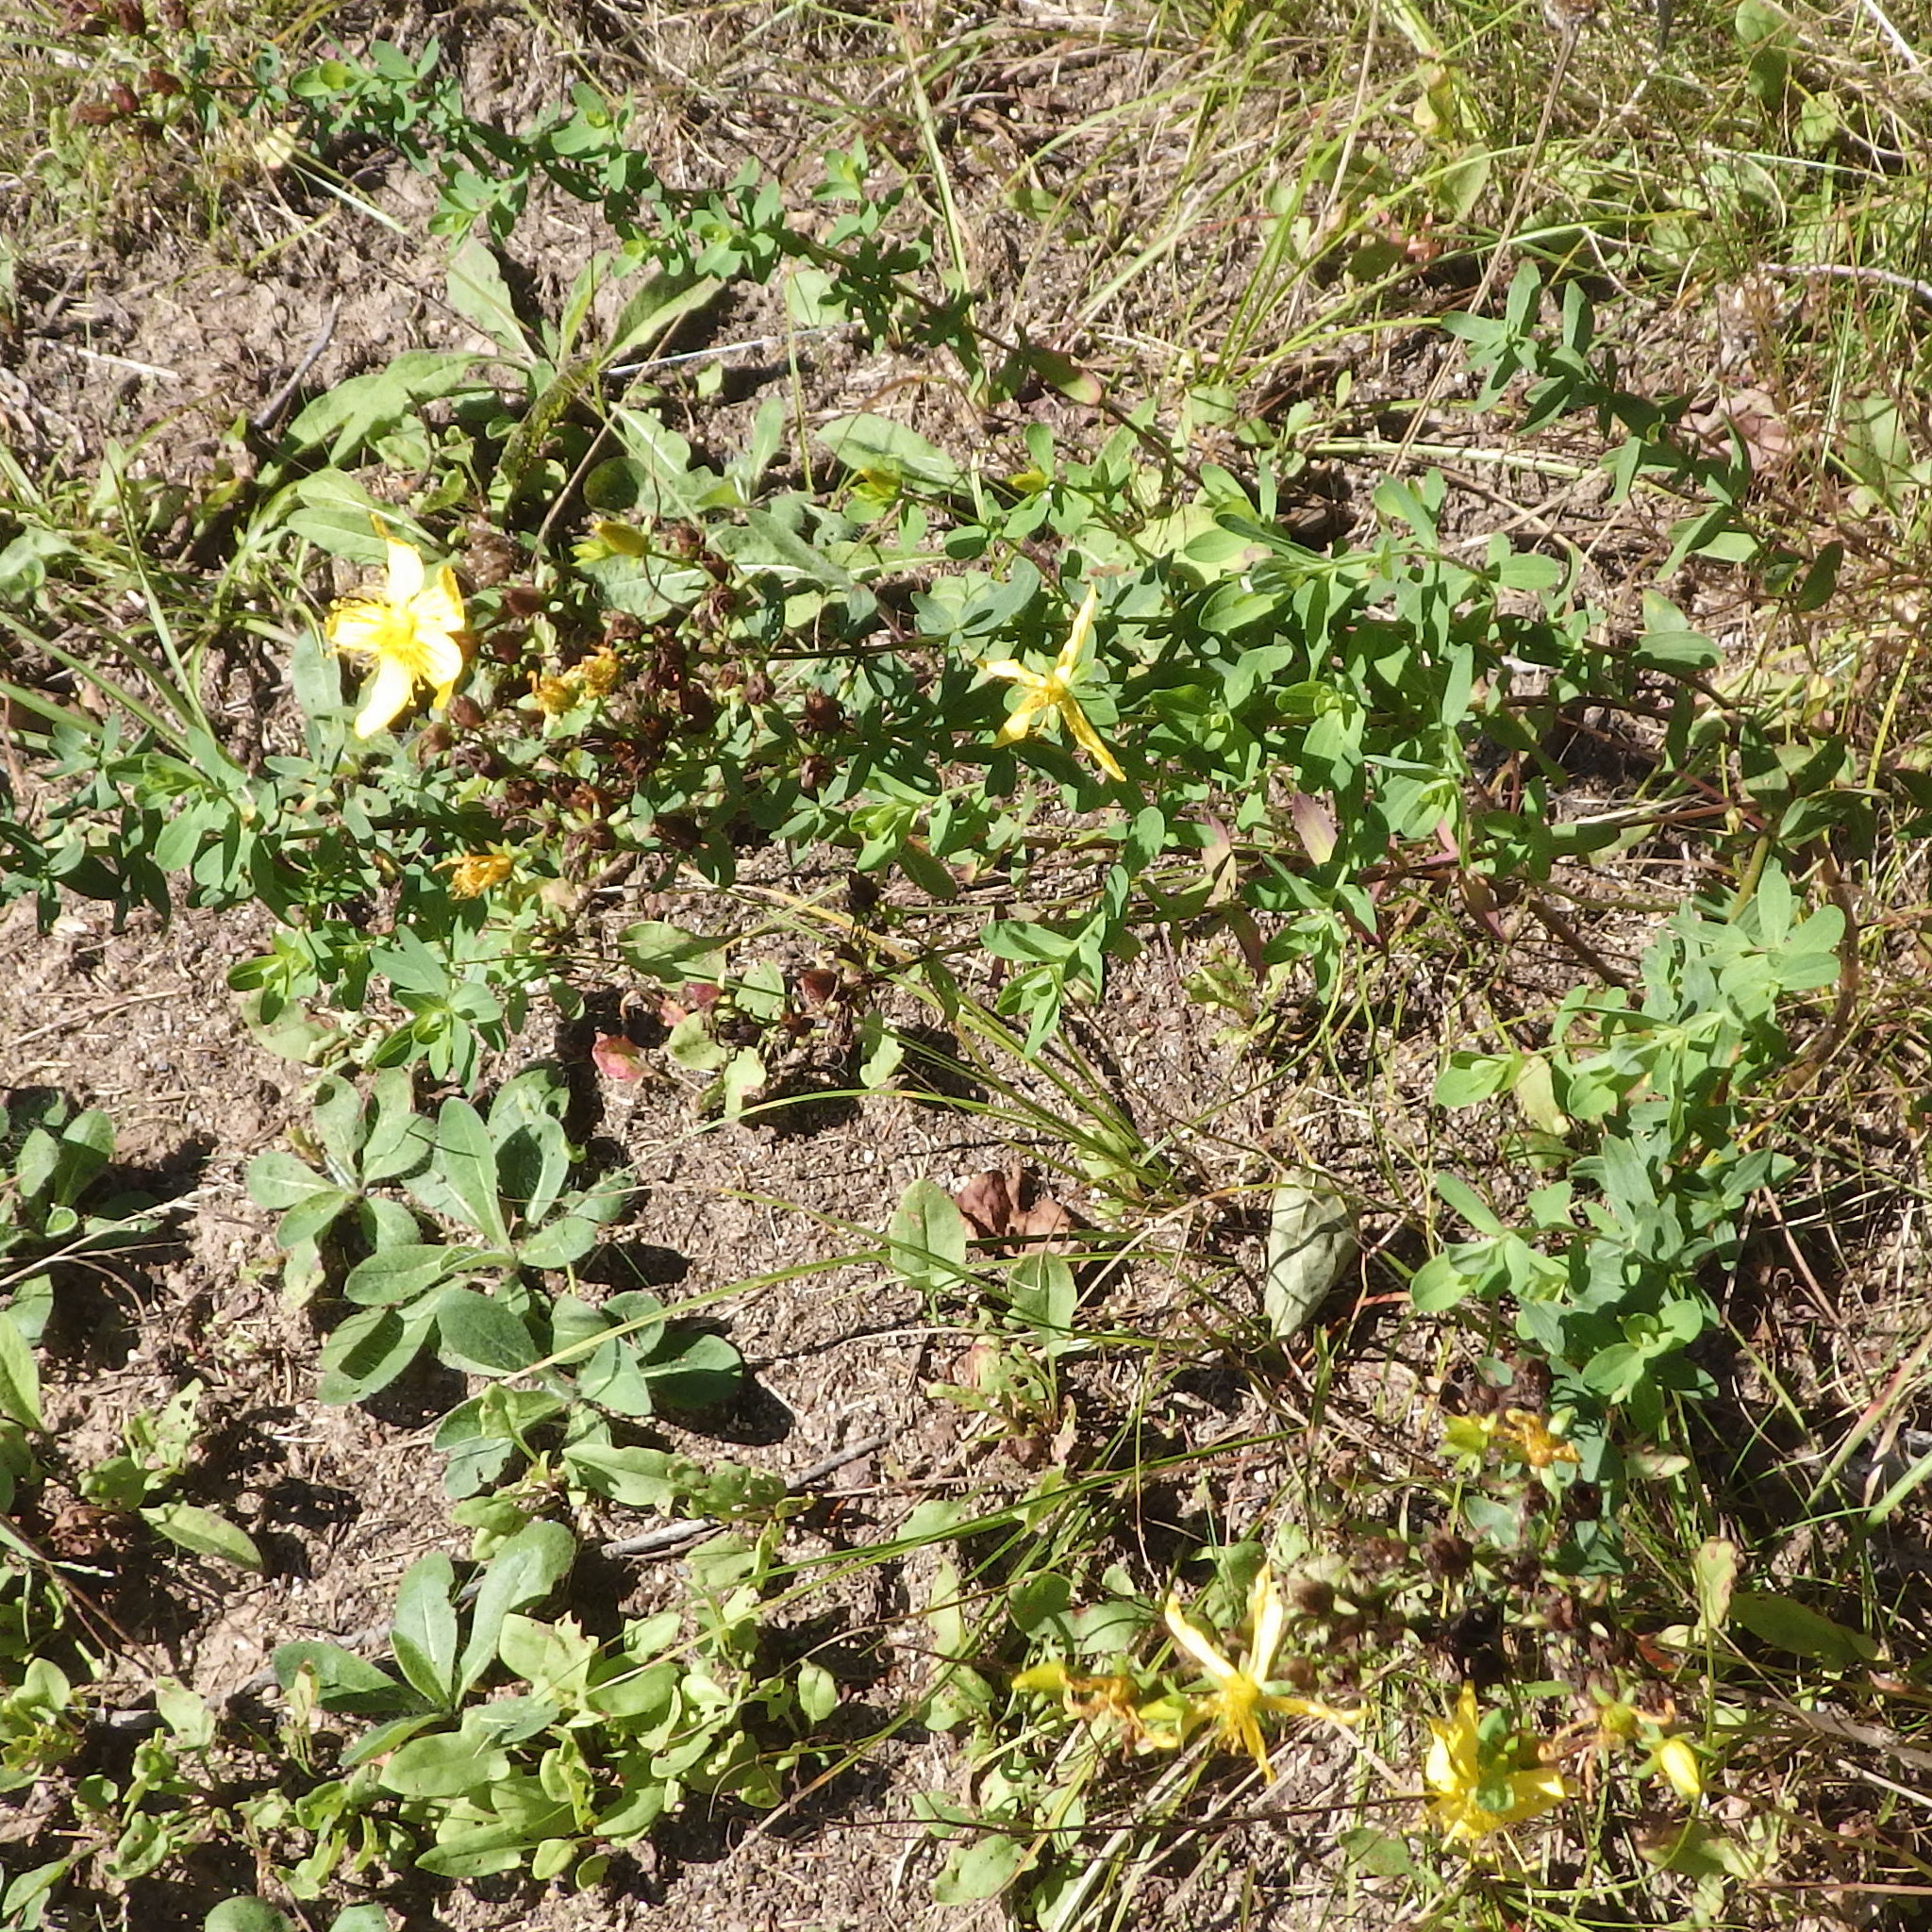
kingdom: Plantae
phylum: Tracheophyta
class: Magnoliopsida
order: Malpighiales
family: Hypericaceae
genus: Hypericum
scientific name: Hypericum perforatum
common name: Common st. johnswort
